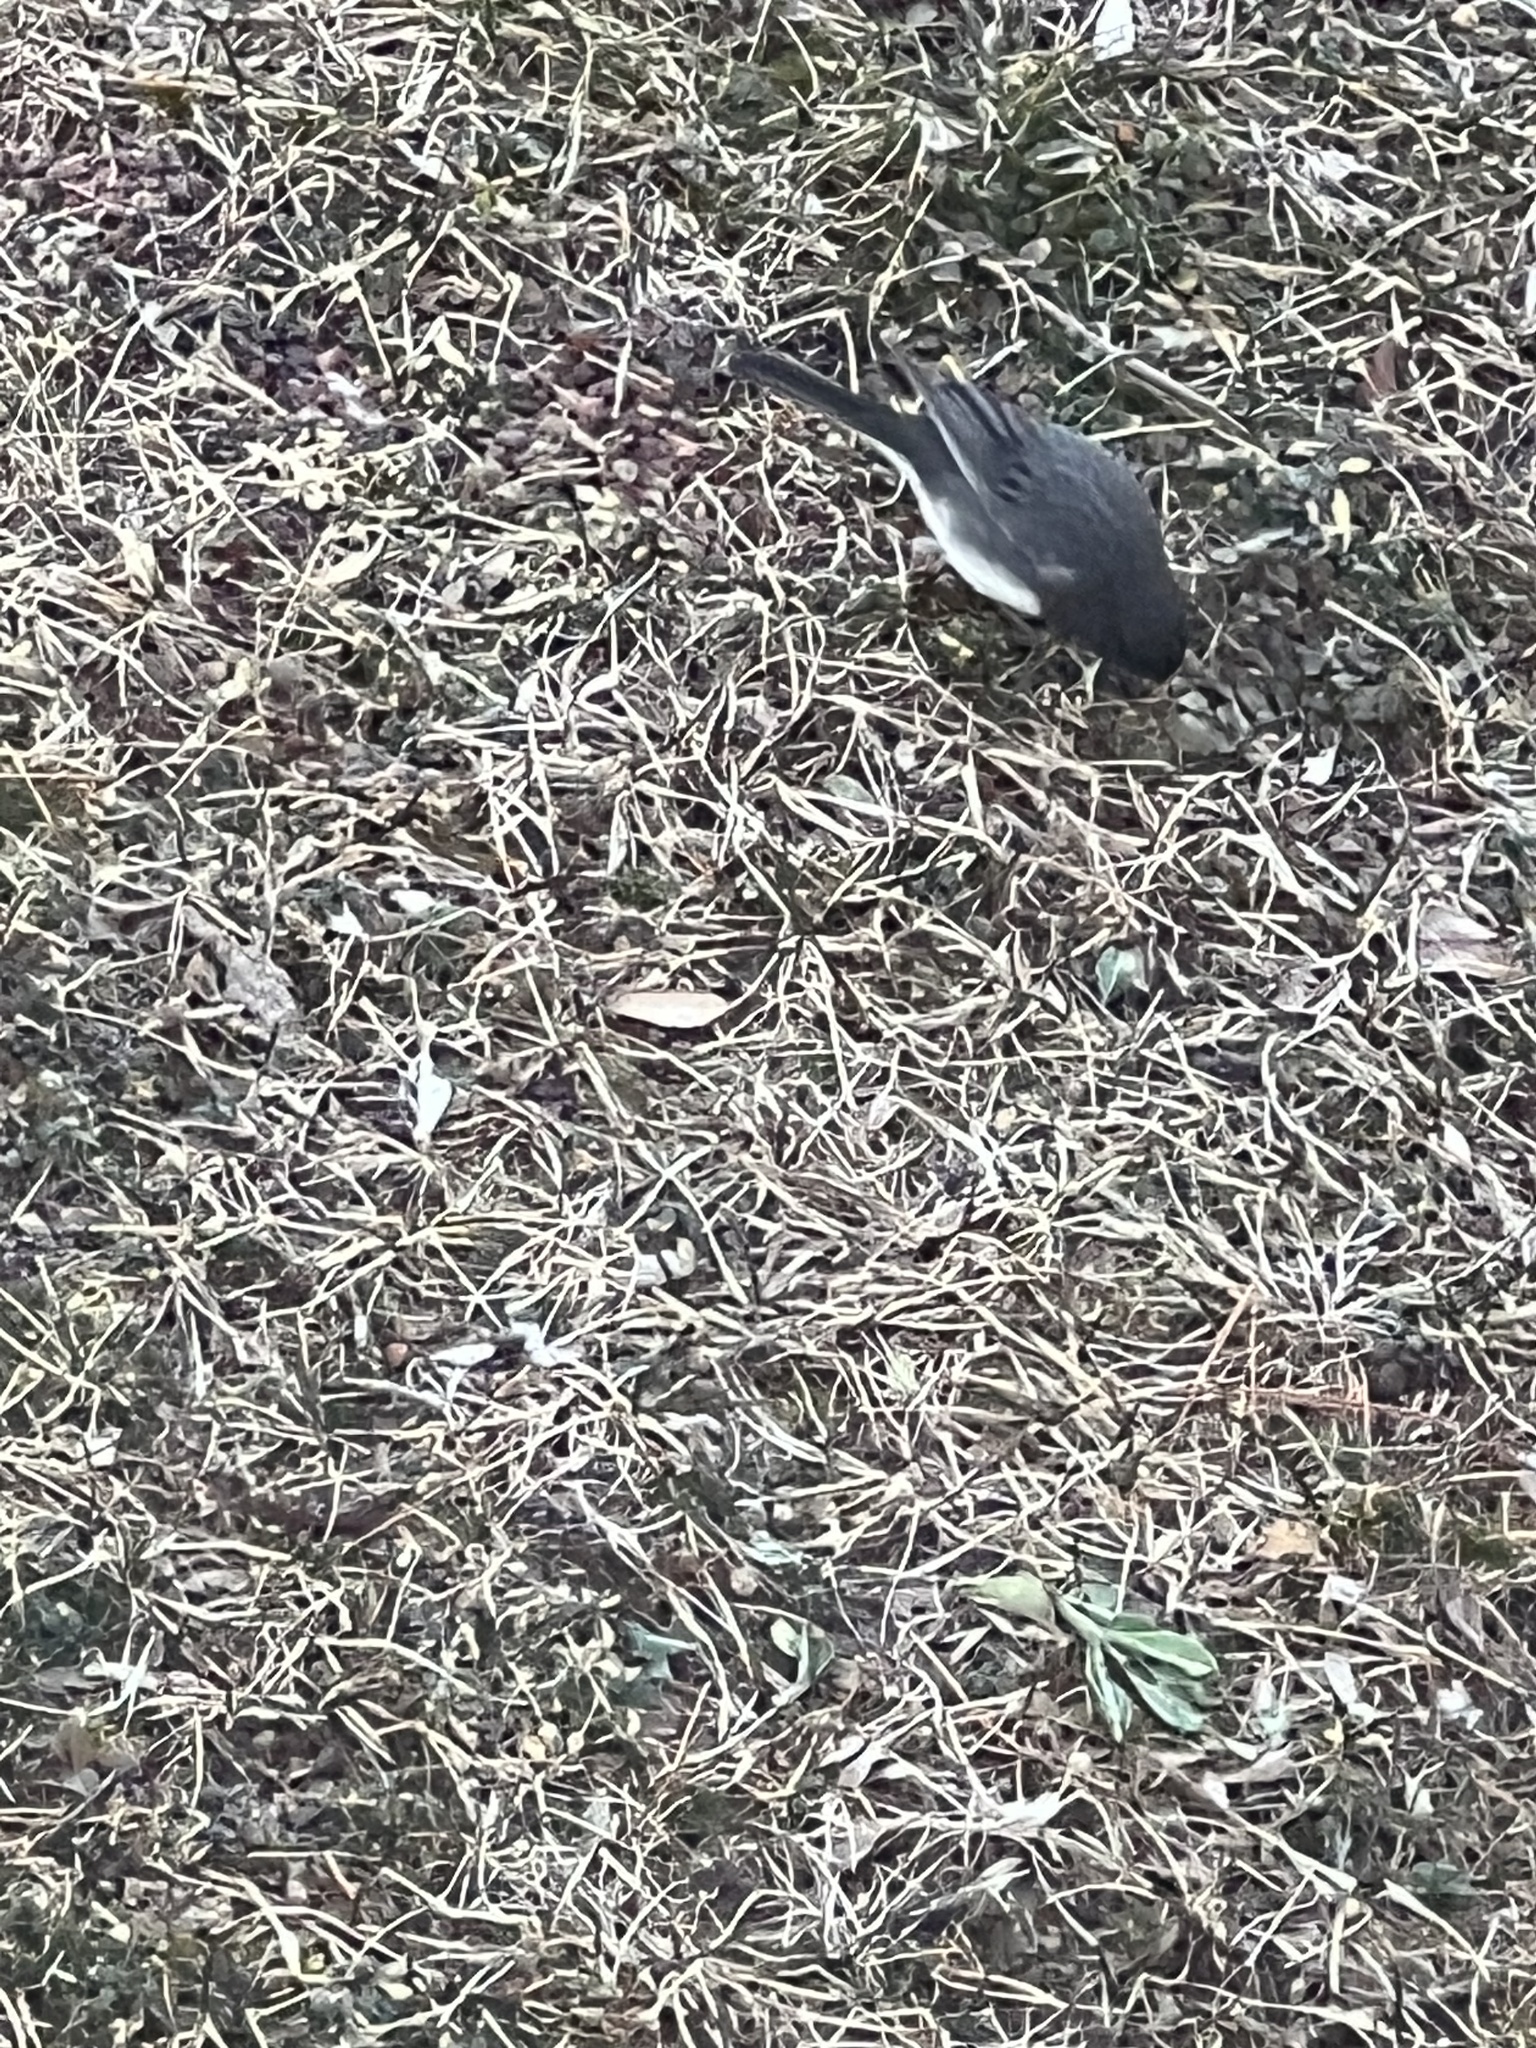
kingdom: Animalia
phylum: Chordata
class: Aves
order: Passeriformes
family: Passerellidae
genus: Junco
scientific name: Junco hyemalis
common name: Dark-eyed junco
